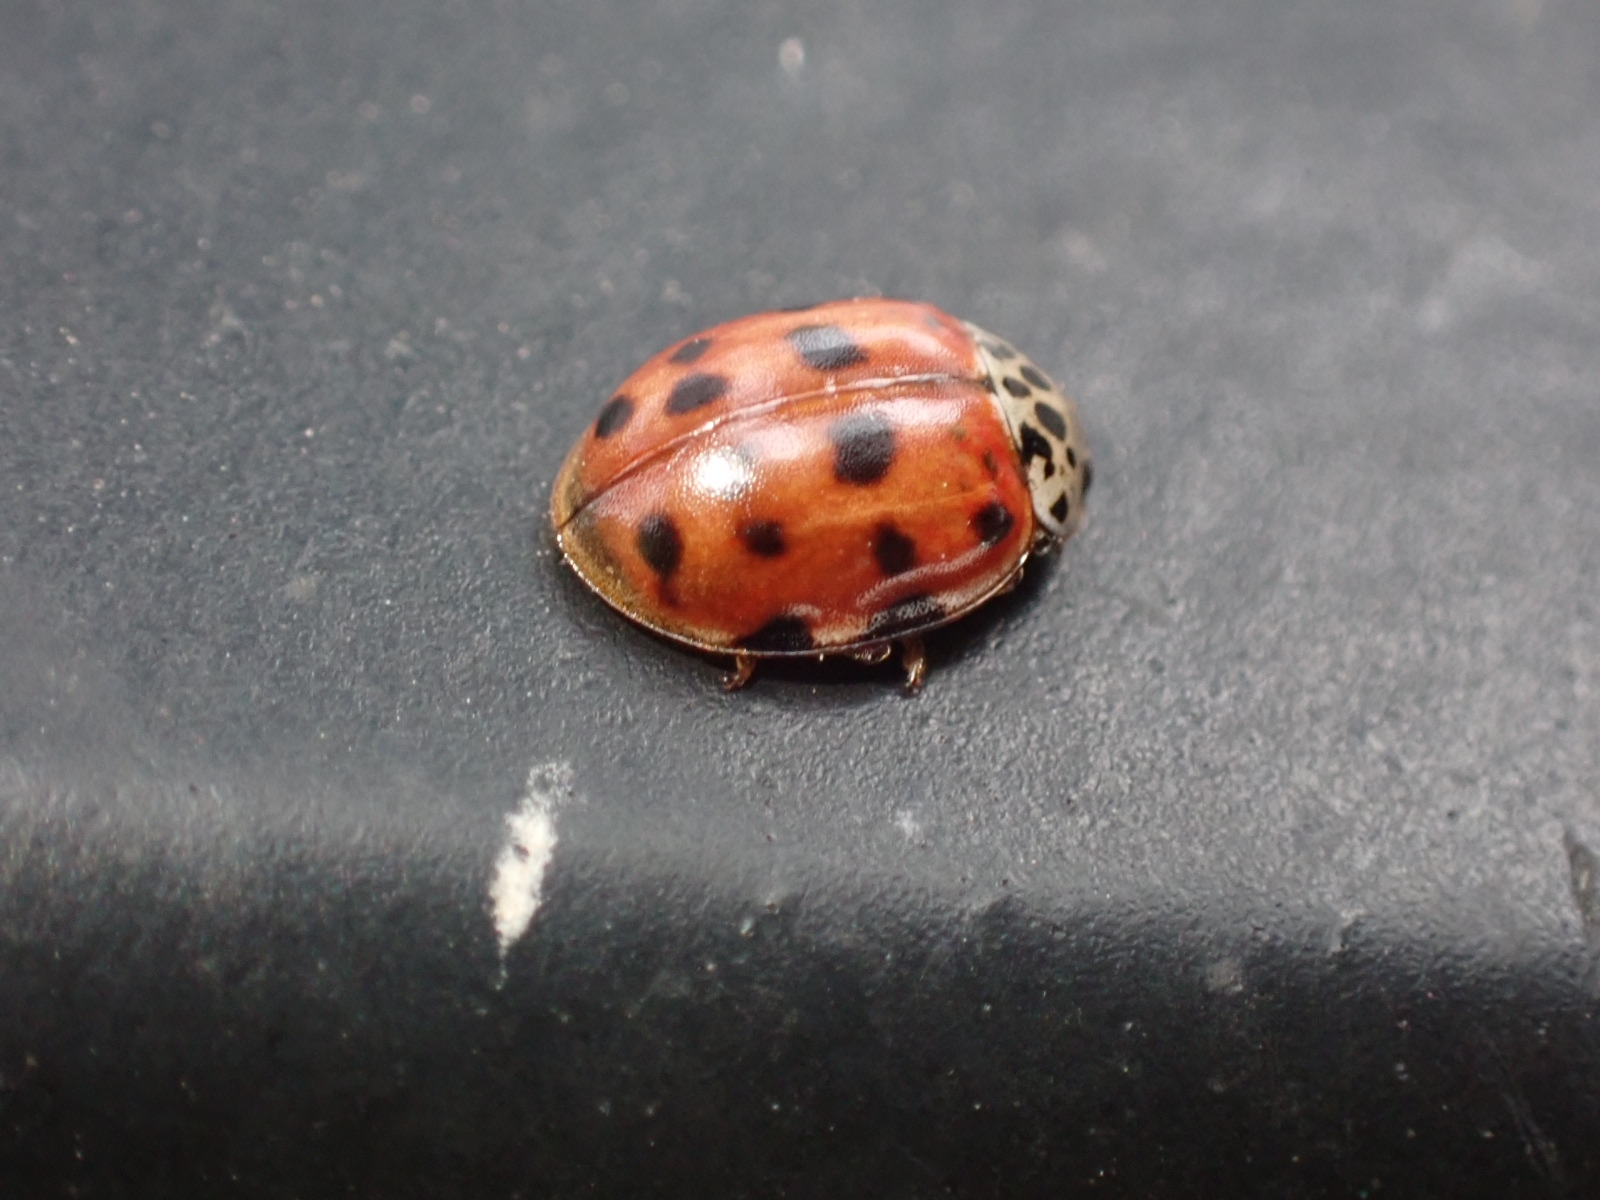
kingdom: Animalia
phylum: Arthropoda
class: Insecta
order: Coleoptera
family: Coccinellidae
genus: Harmonia
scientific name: Harmonia quadripunctata
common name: Cream-streaked ladybird
